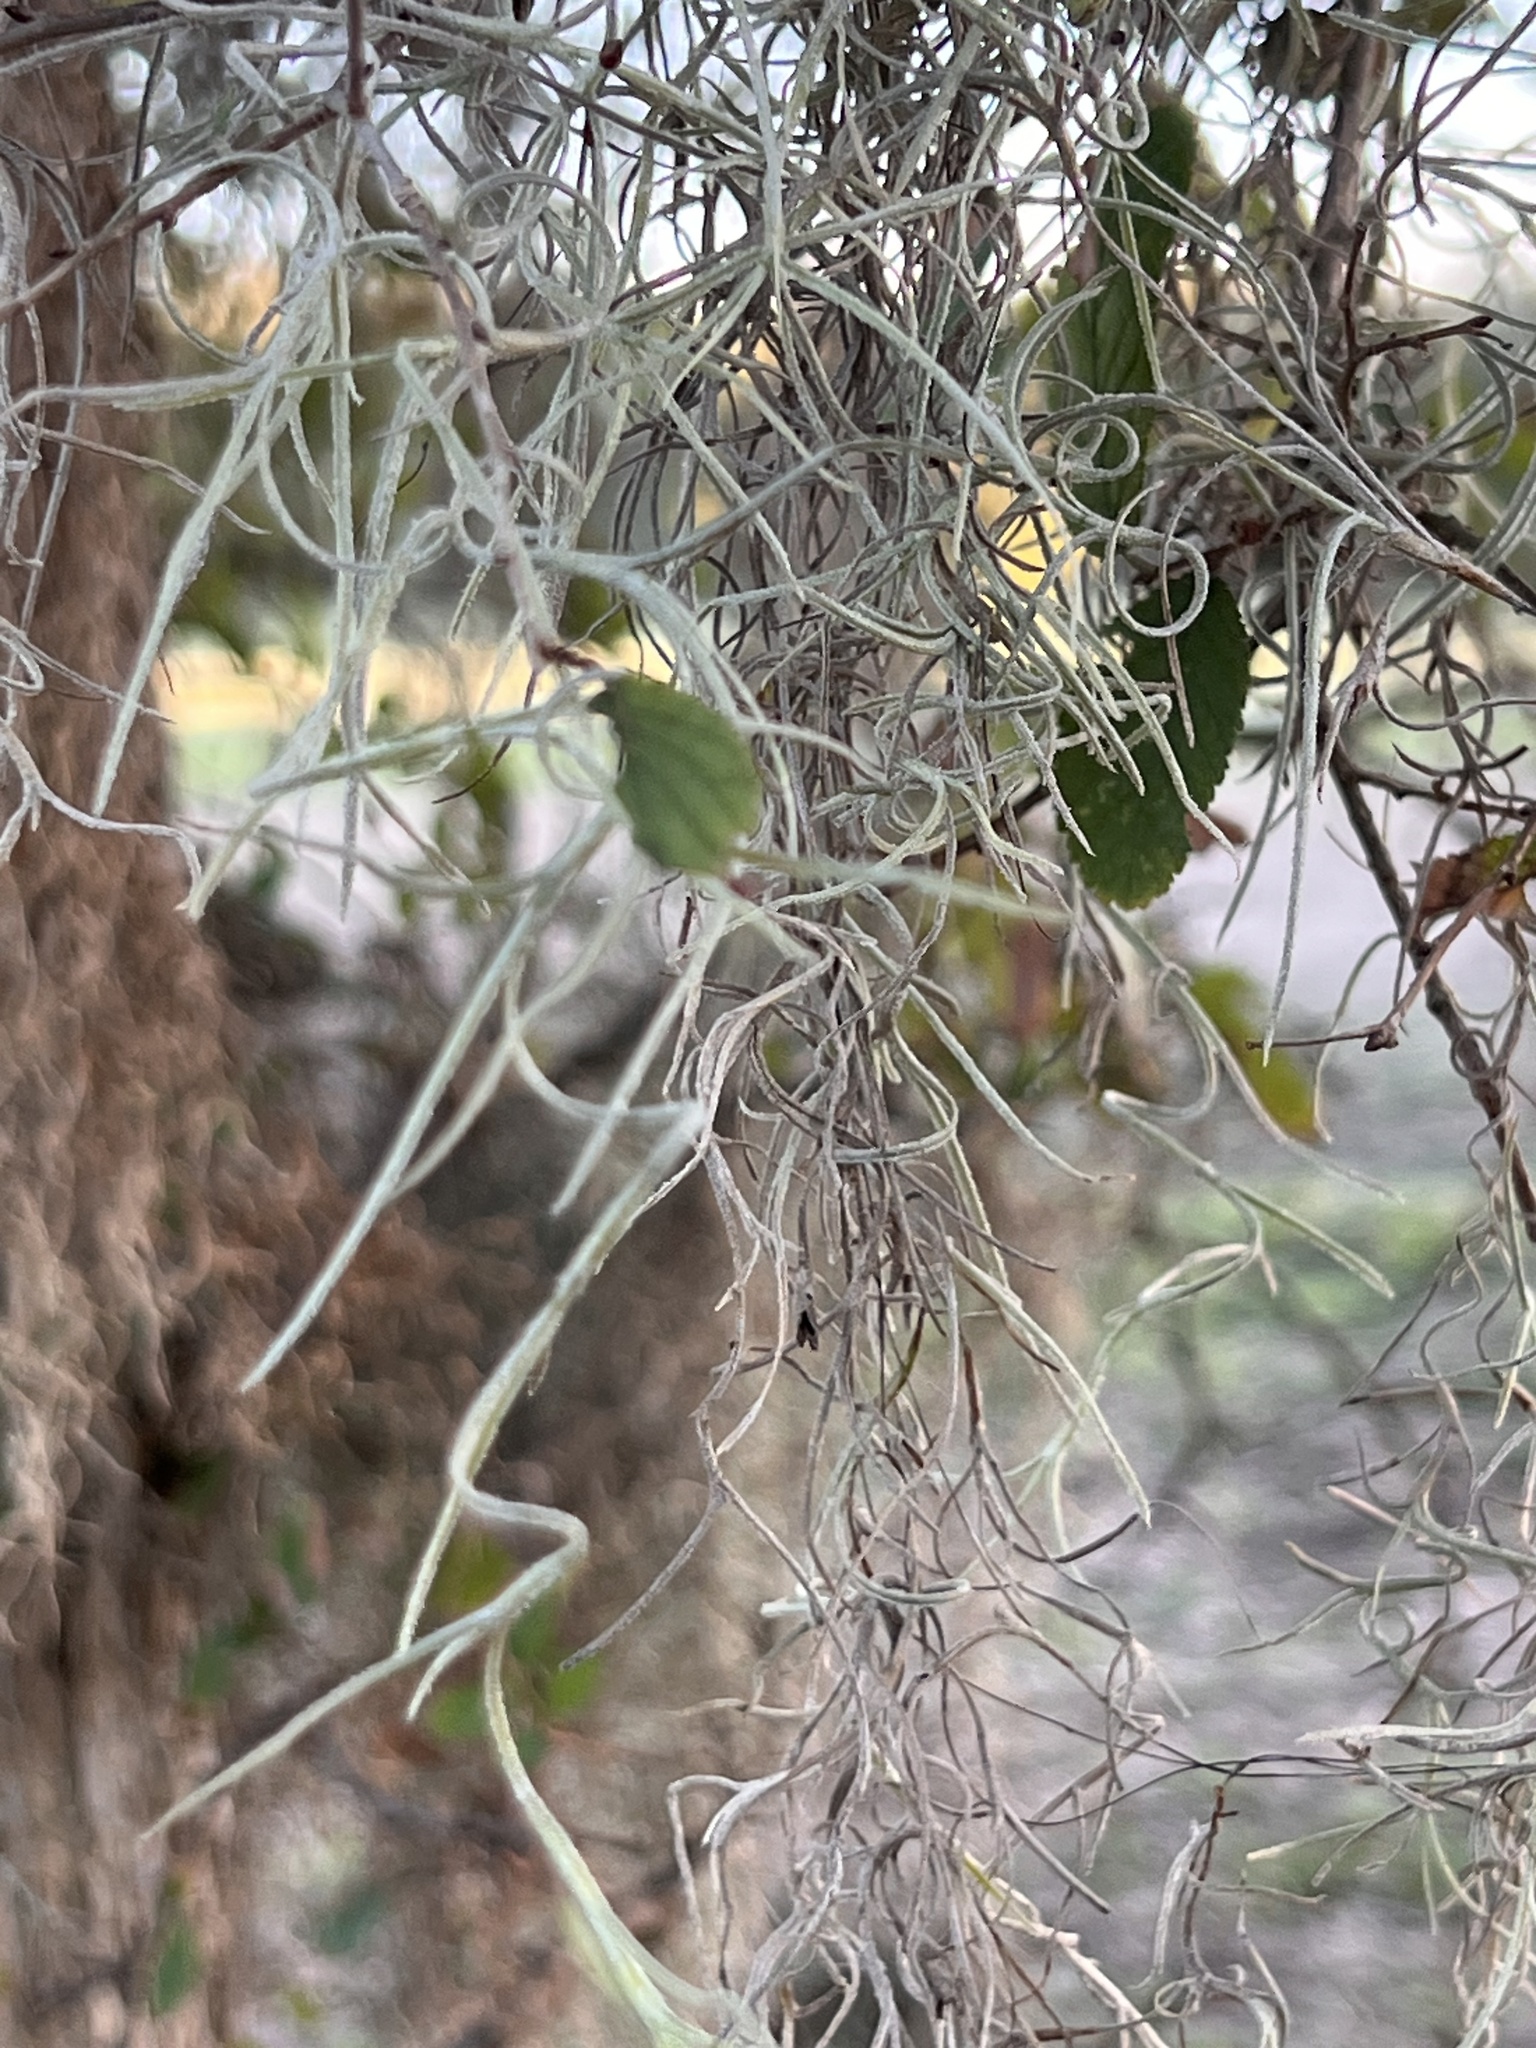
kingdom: Plantae
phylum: Tracheophyta
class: Liliopsida
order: Poales
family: Bromeliaceae
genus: Tillandsia
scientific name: Tillandsia usneoides
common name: Spanish moss
